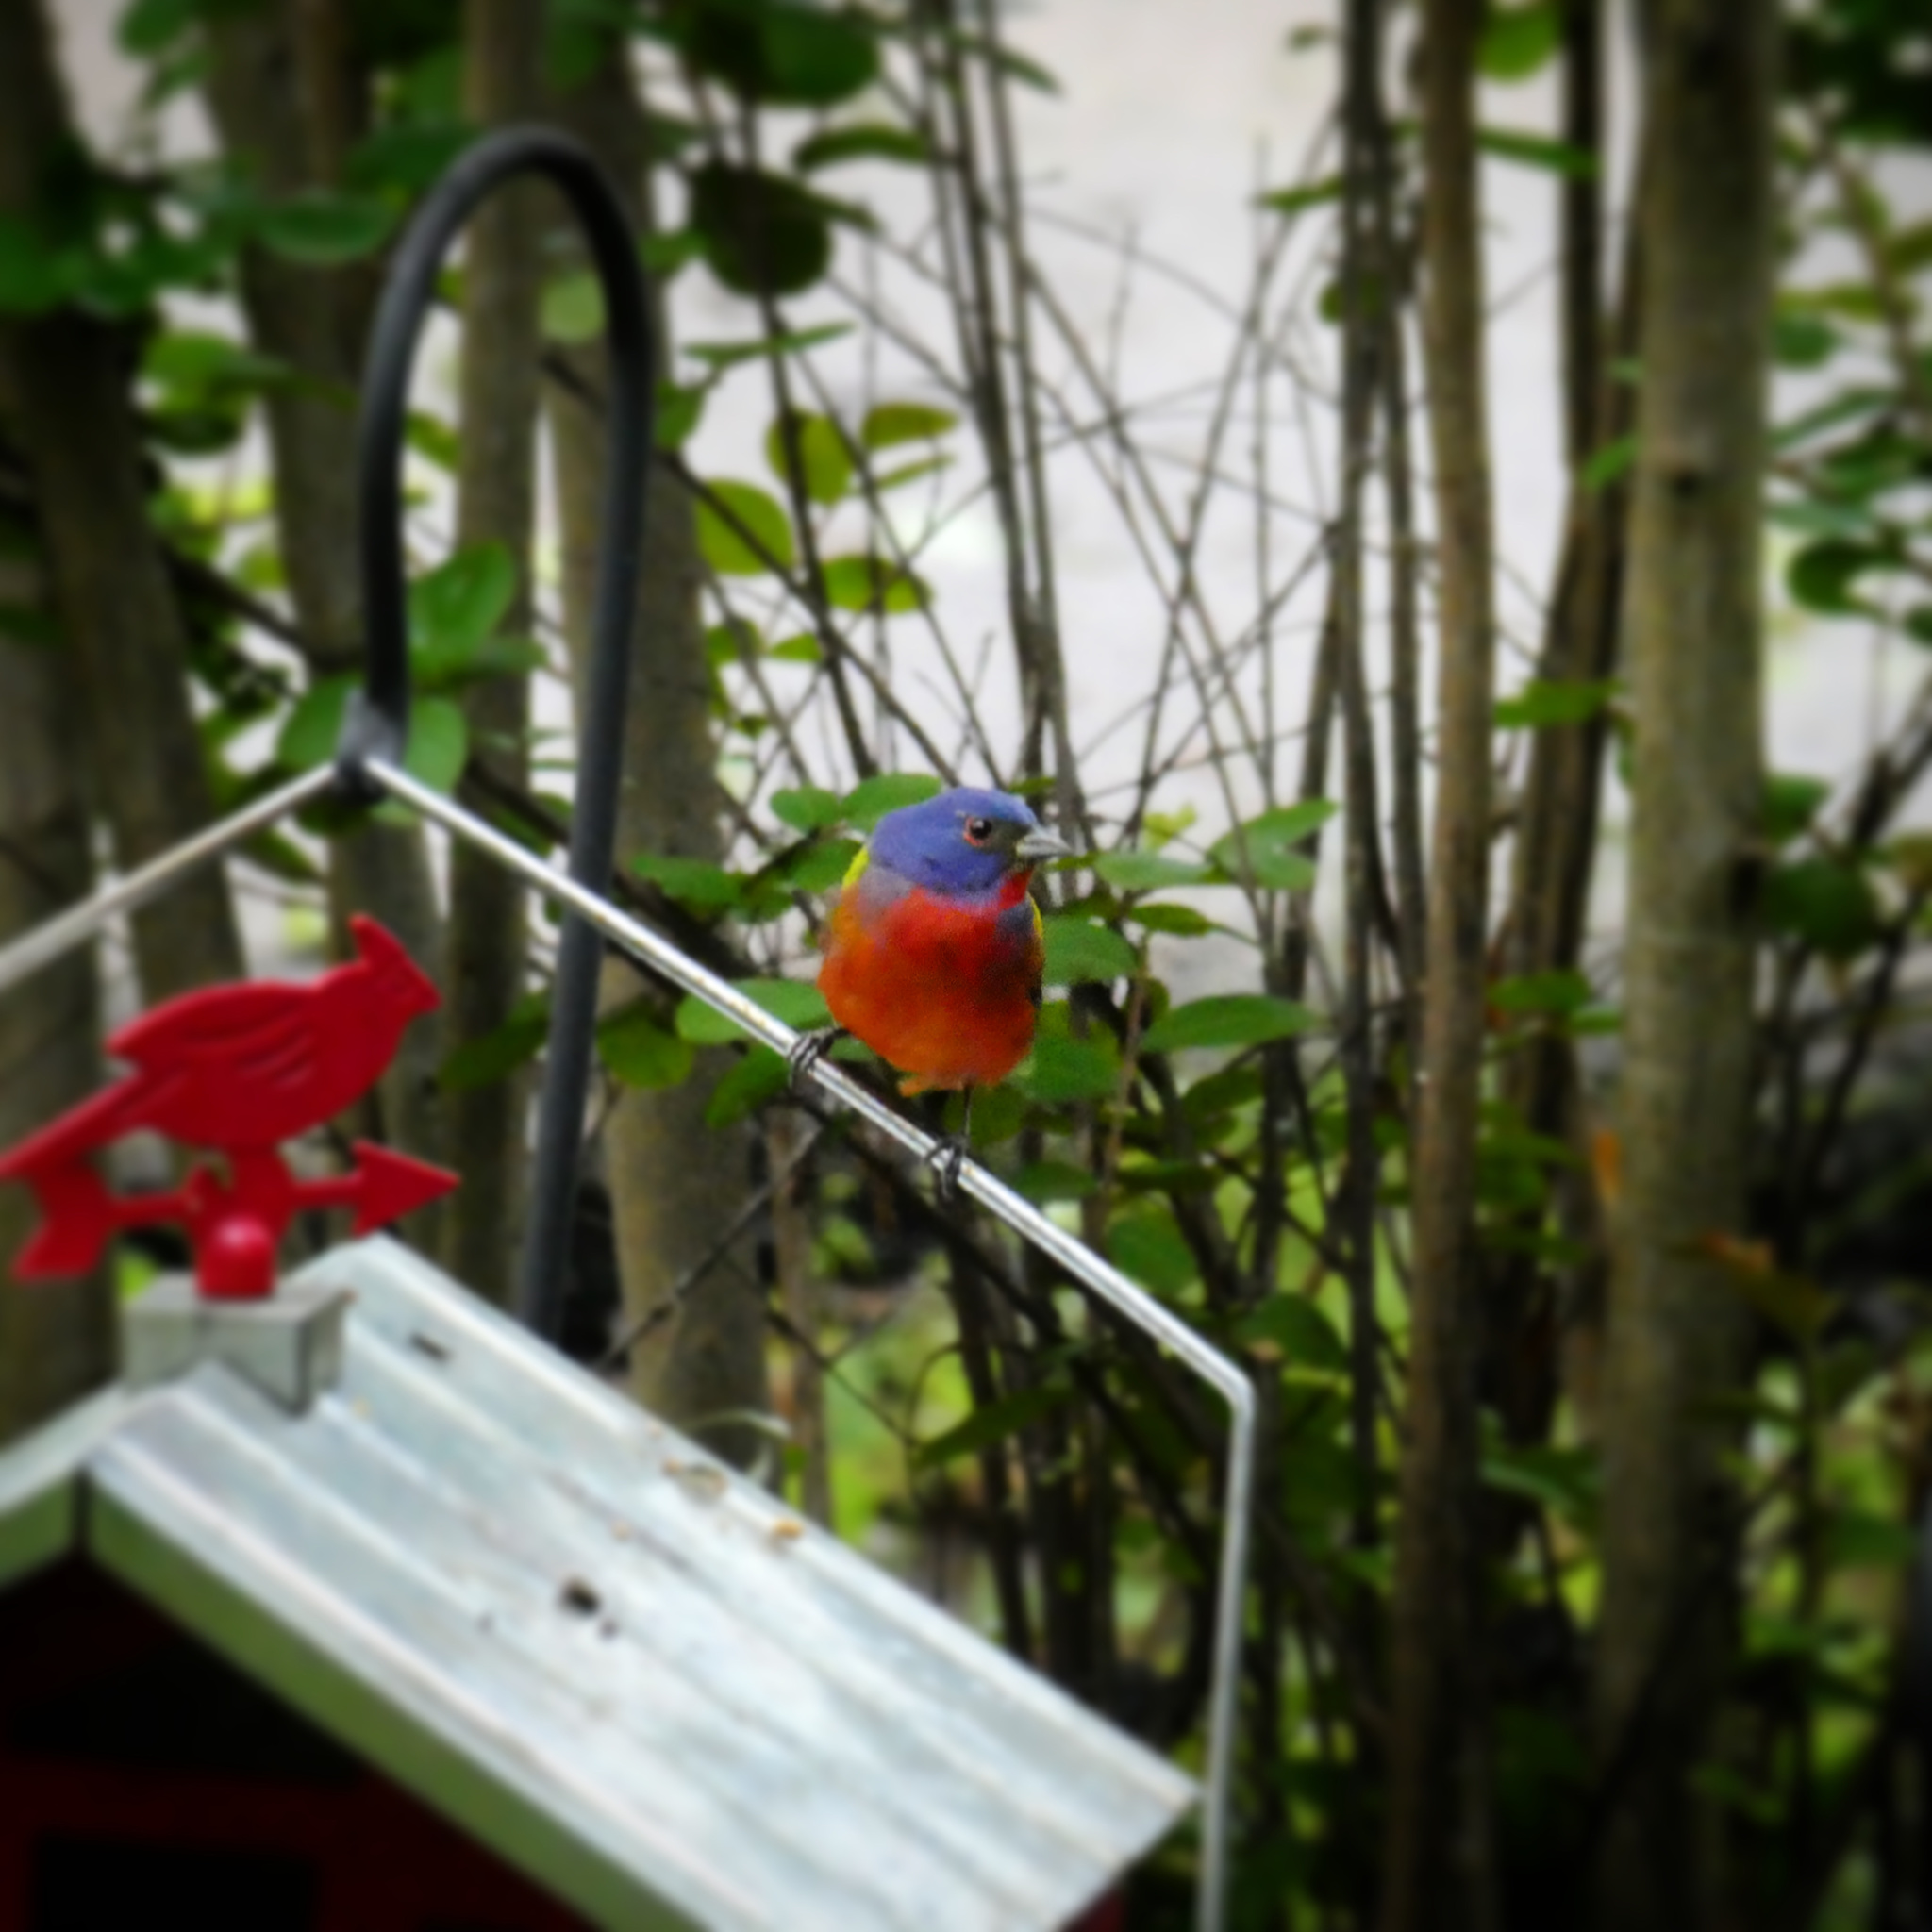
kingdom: Animalia
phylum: Chordata
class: Aves
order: Passeriformes
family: Cardinalidae
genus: Passerina
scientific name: Passerina ciris
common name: Painted bunting
